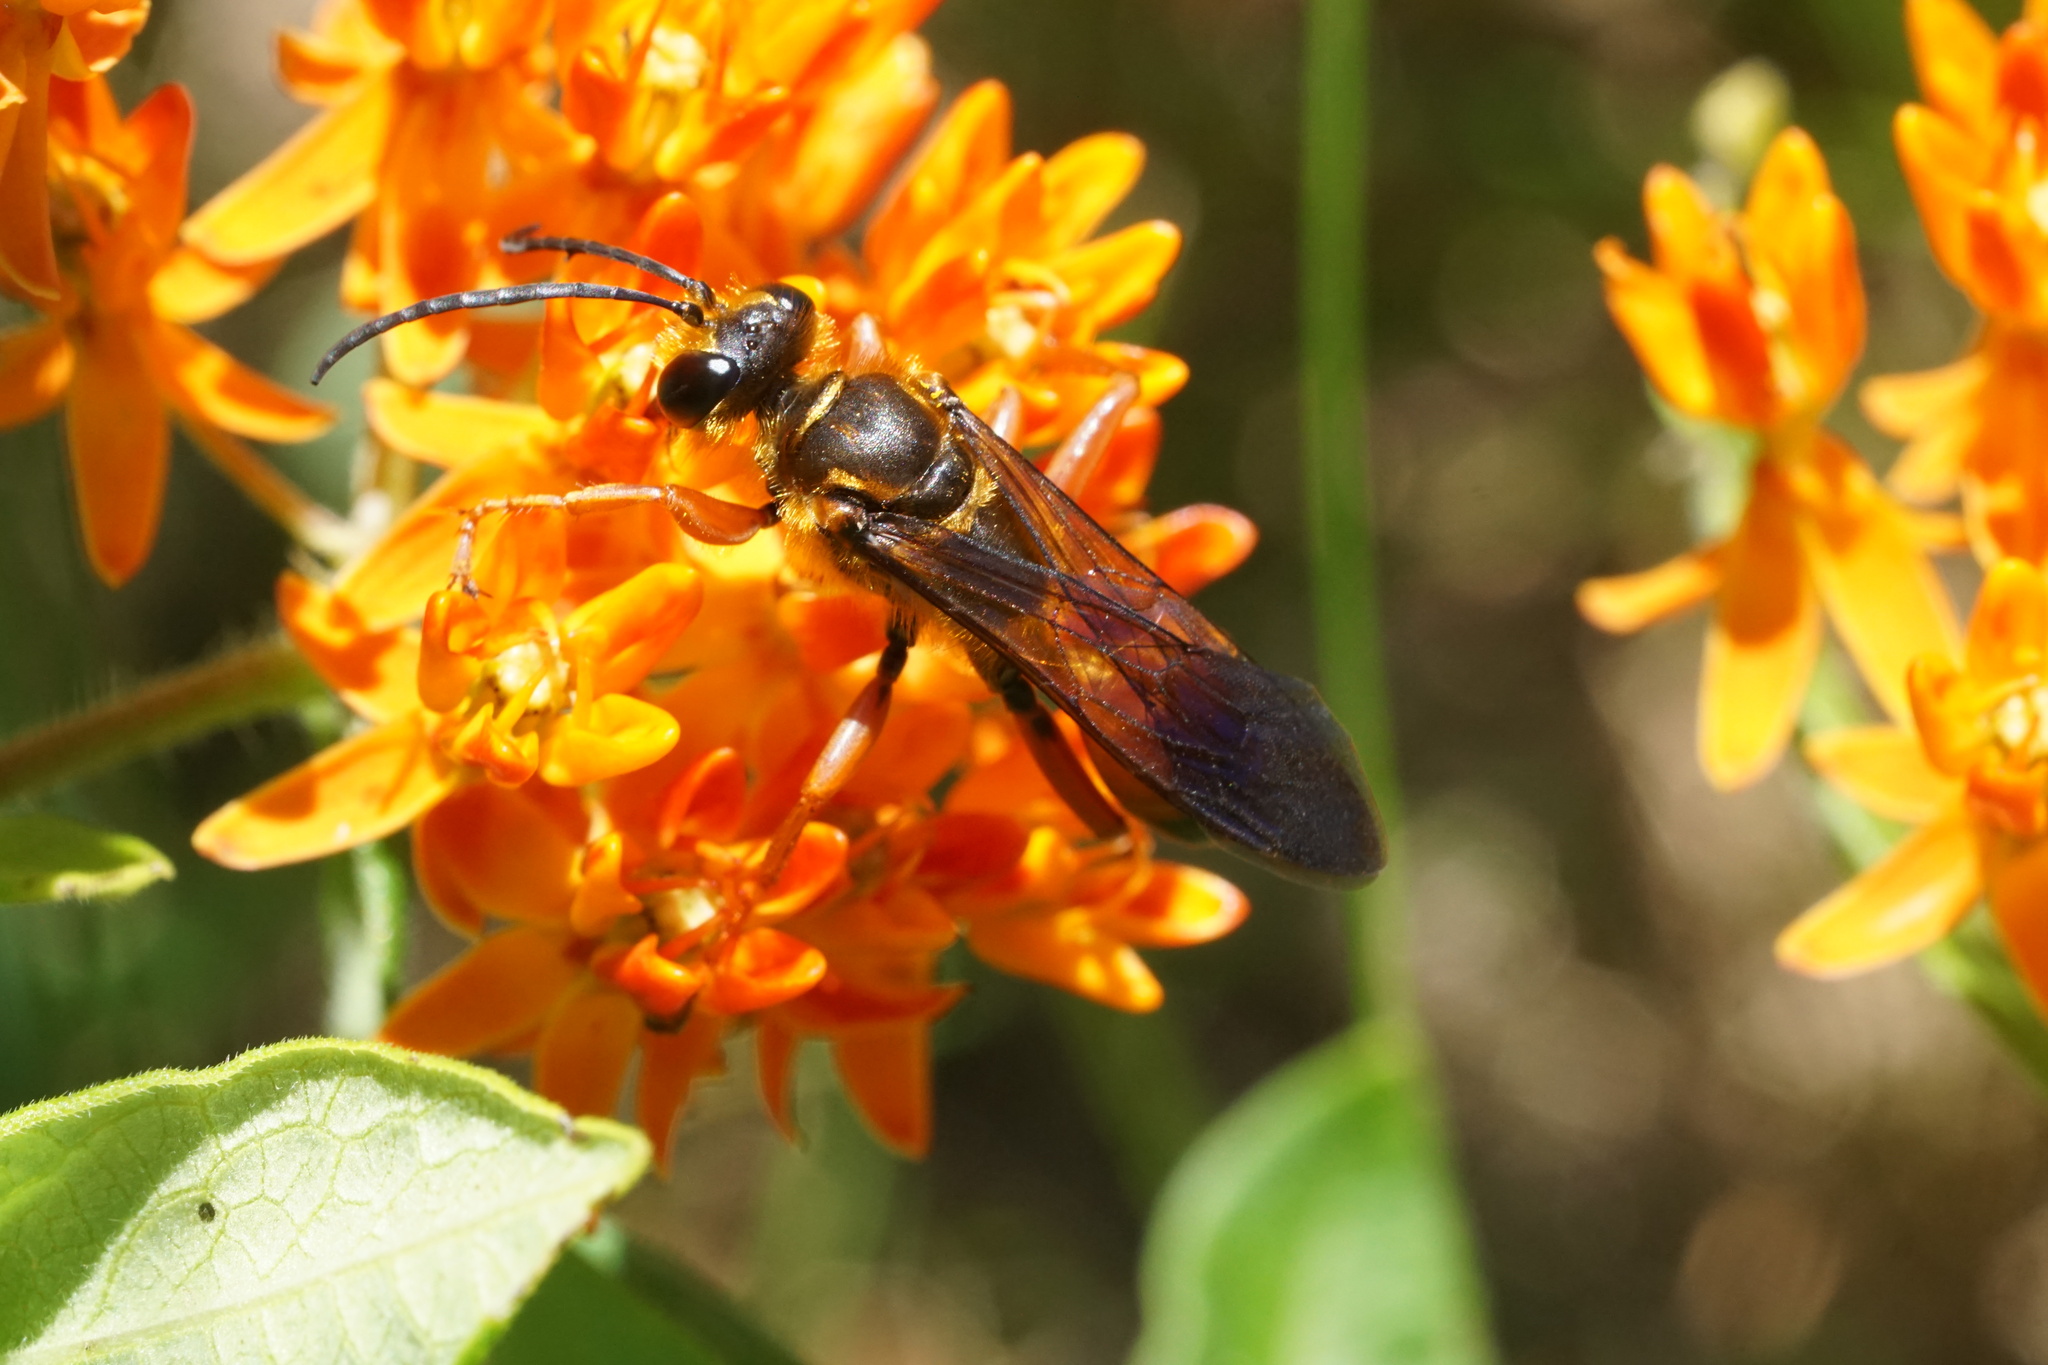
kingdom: Animalia
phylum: Arthropoda
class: Insecta
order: Hymenoptera
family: Sphecidae
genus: Sphex
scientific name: Sphex ichneumoneus
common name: Great golden digger wasp
